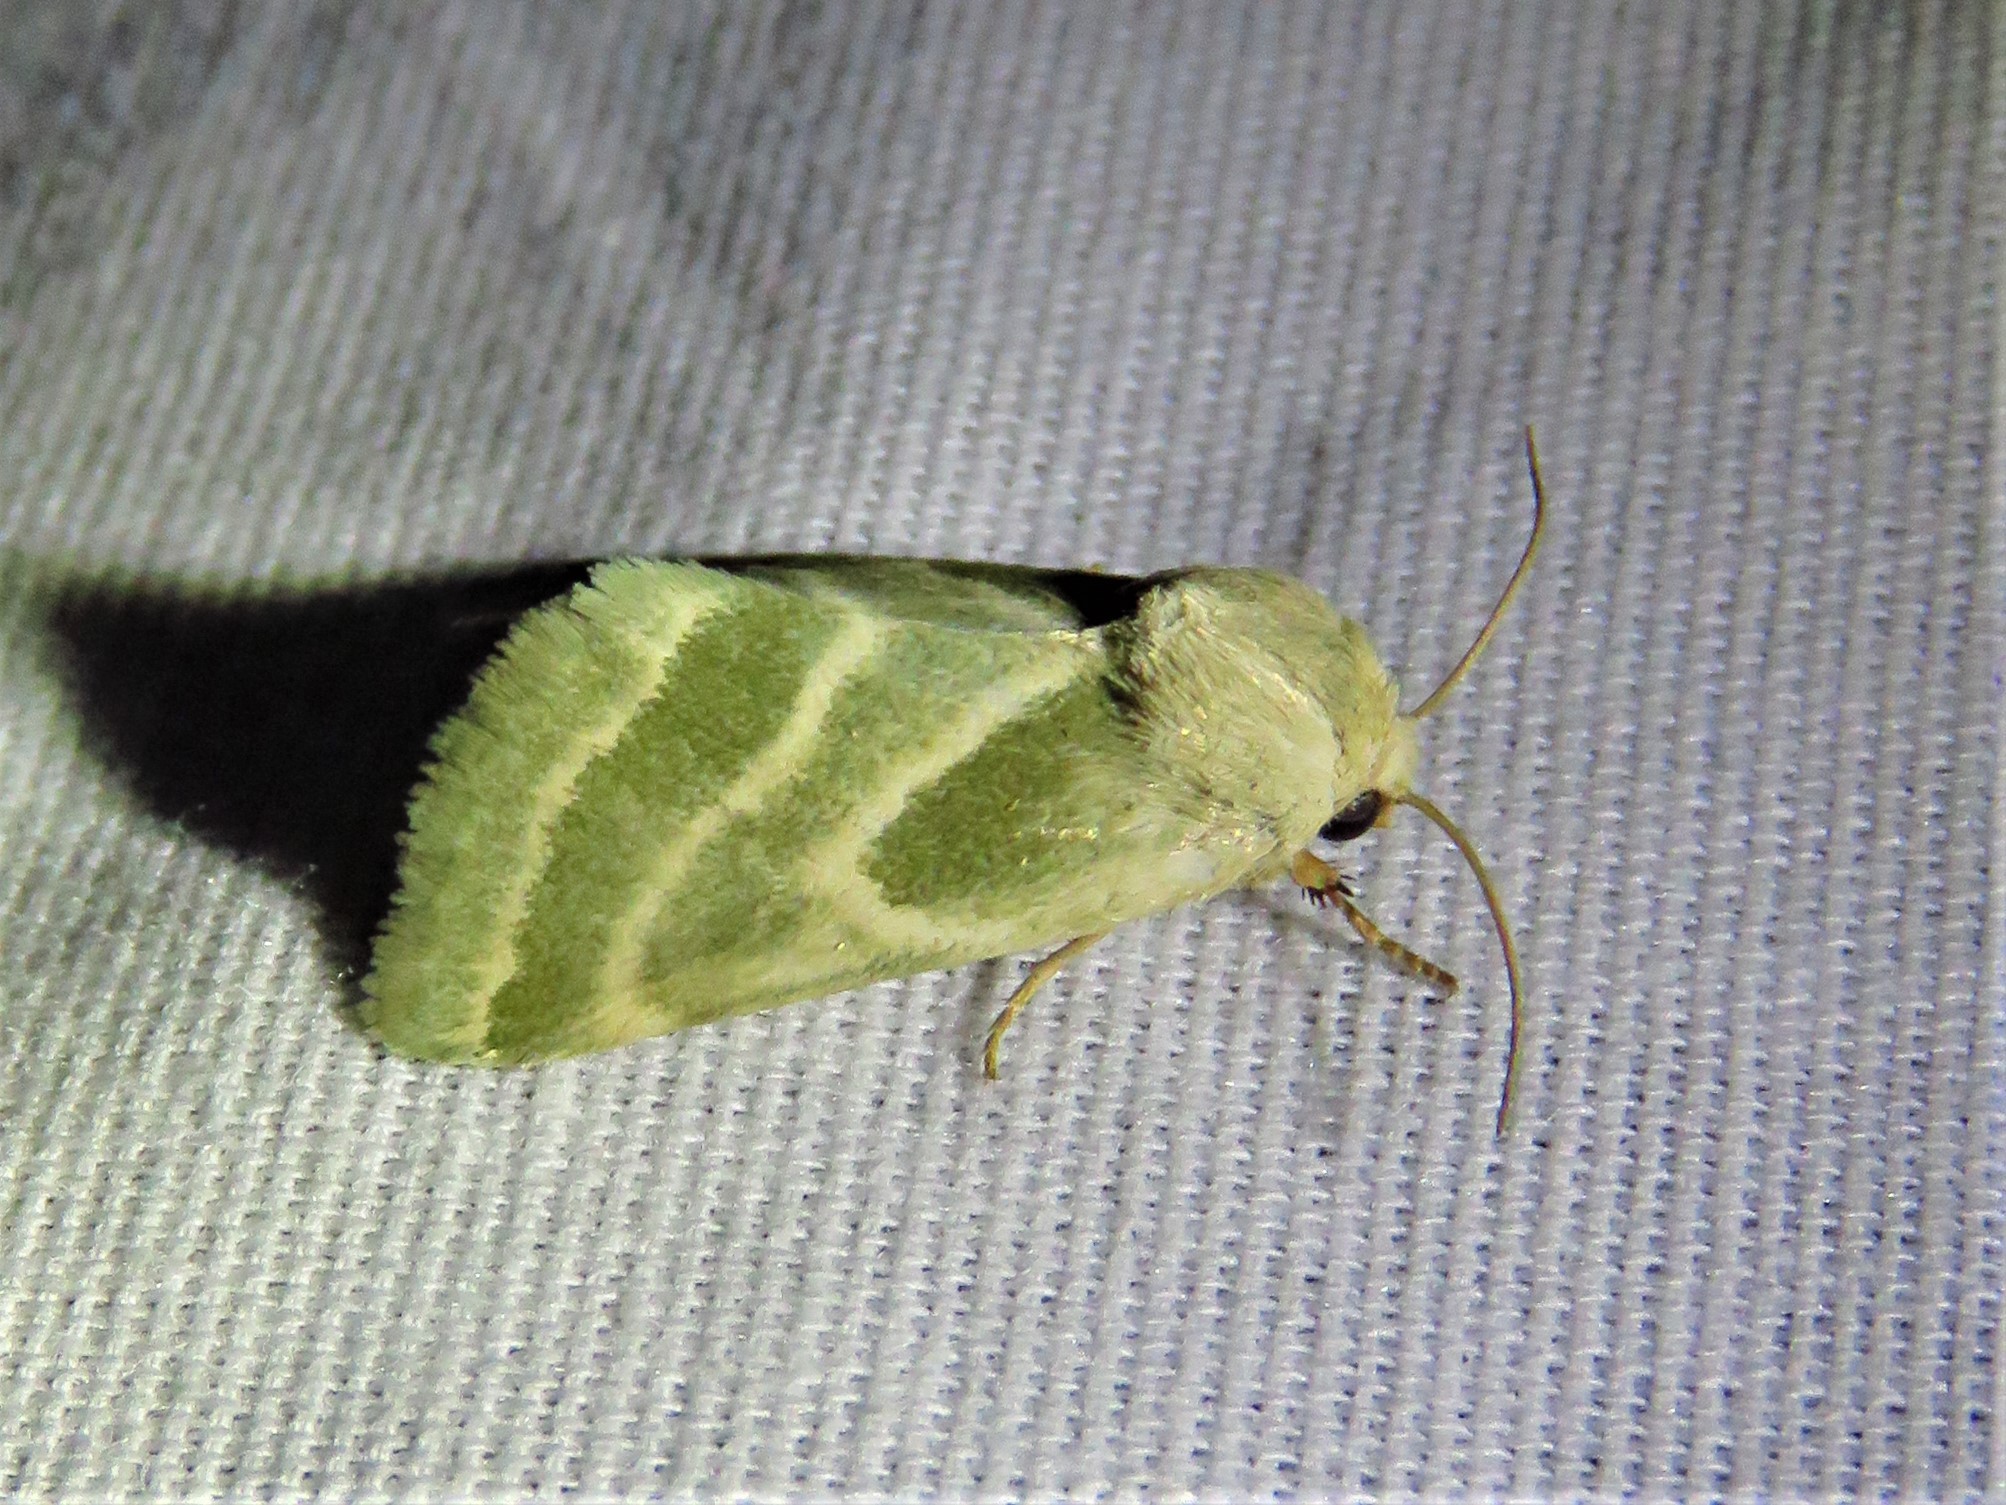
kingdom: Animalia
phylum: Arthropoda
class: Insecta
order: Lepidoptera
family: Noctuidae
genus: Schinia
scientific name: Schinia trifascia
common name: Three-lined flower moth
